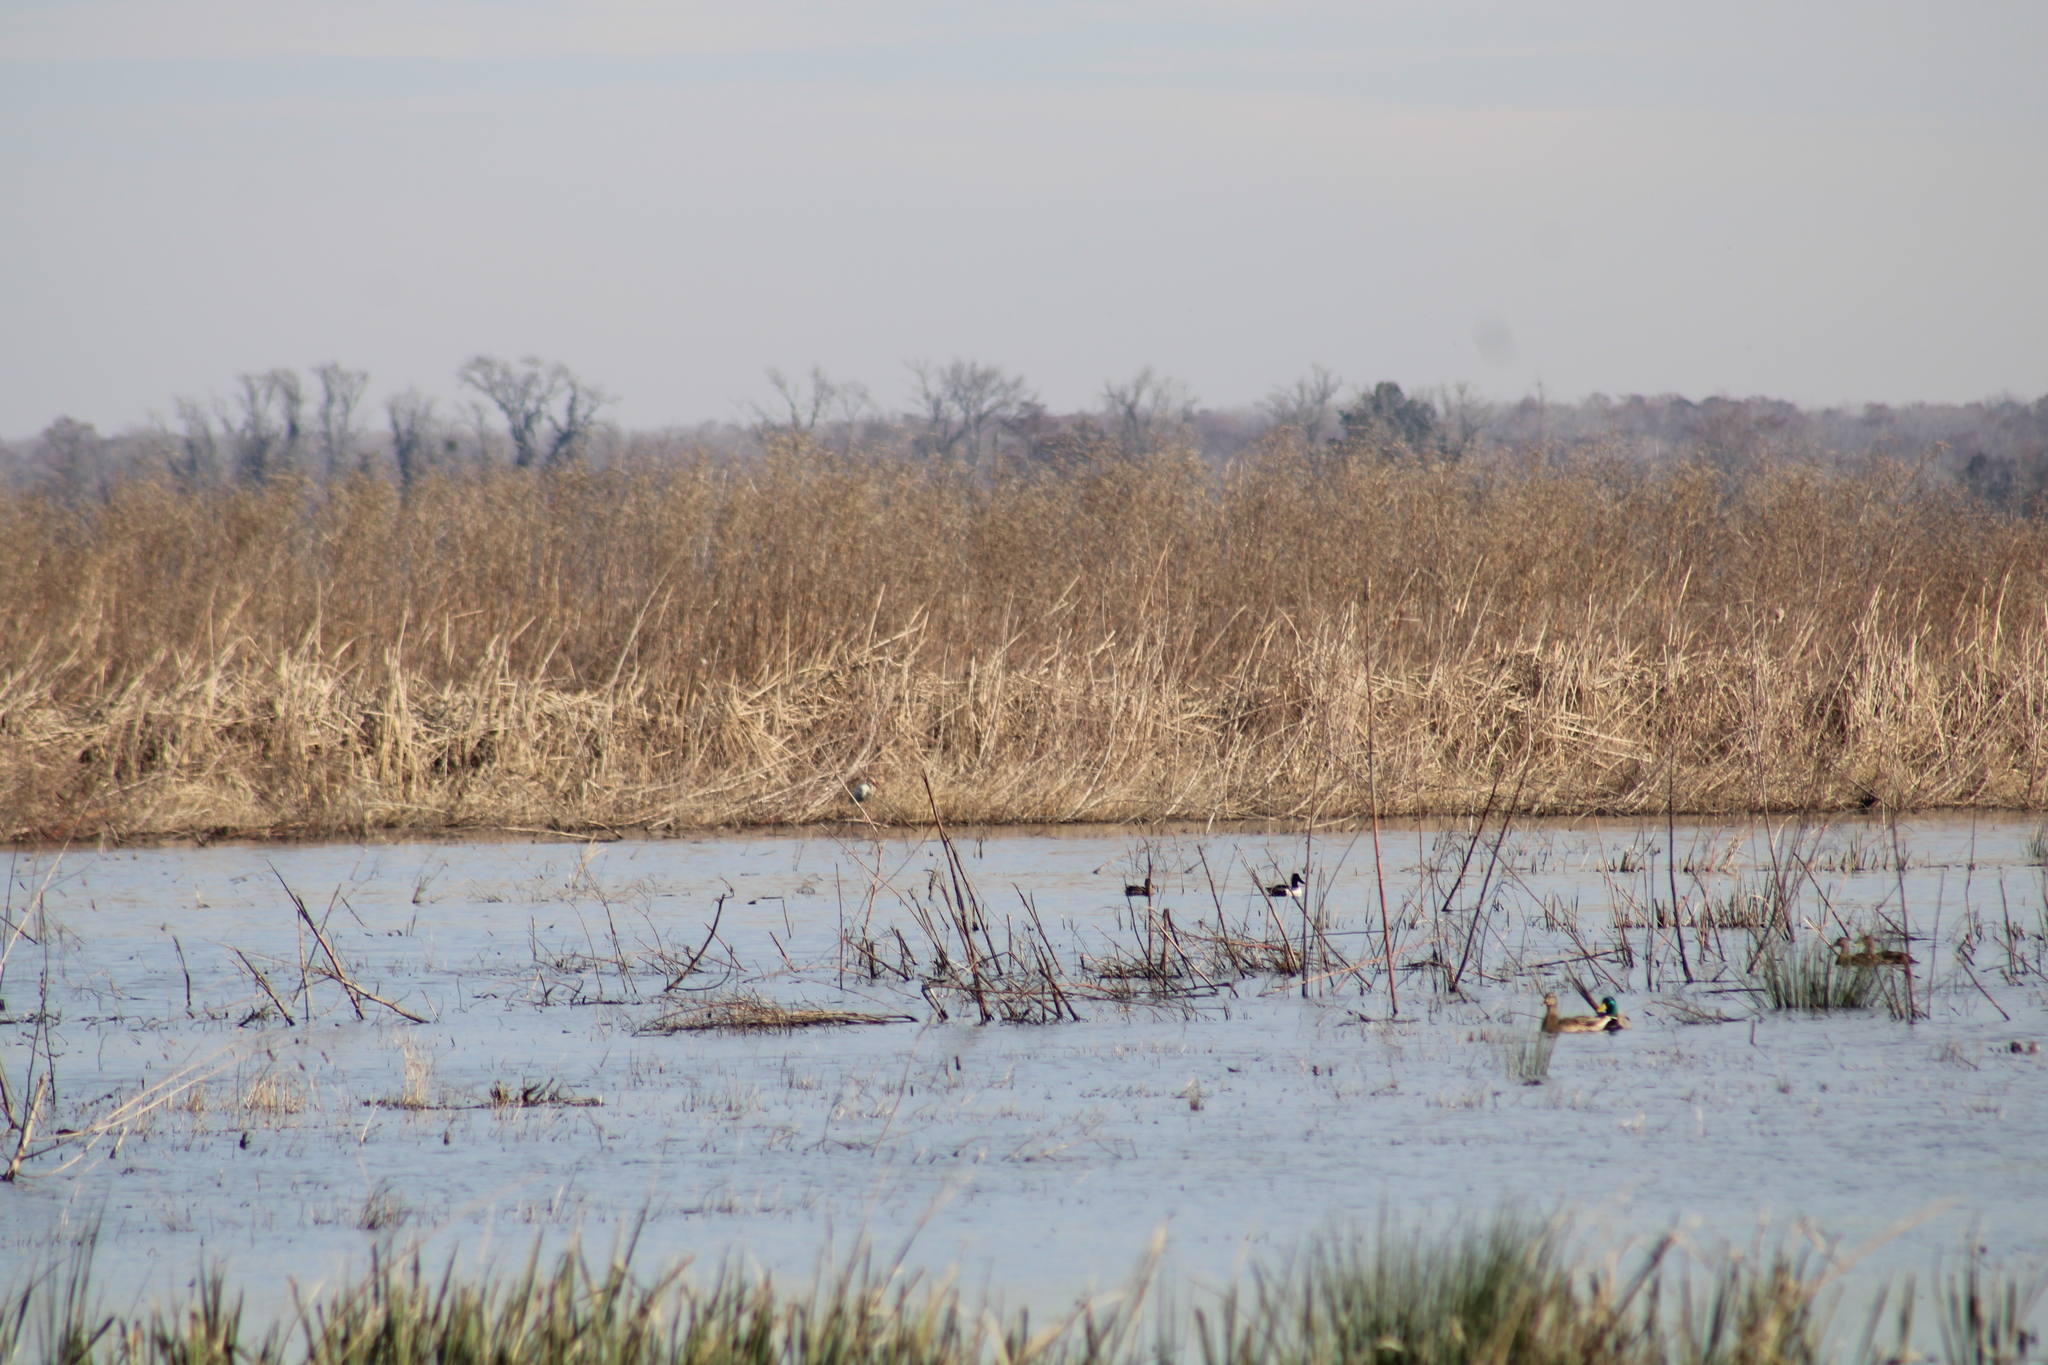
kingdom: Animalia
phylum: Chordata
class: Aves
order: Anseriformes
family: Anatidae
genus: Spatula
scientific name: Spatula clypeata
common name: Northern shoveler
